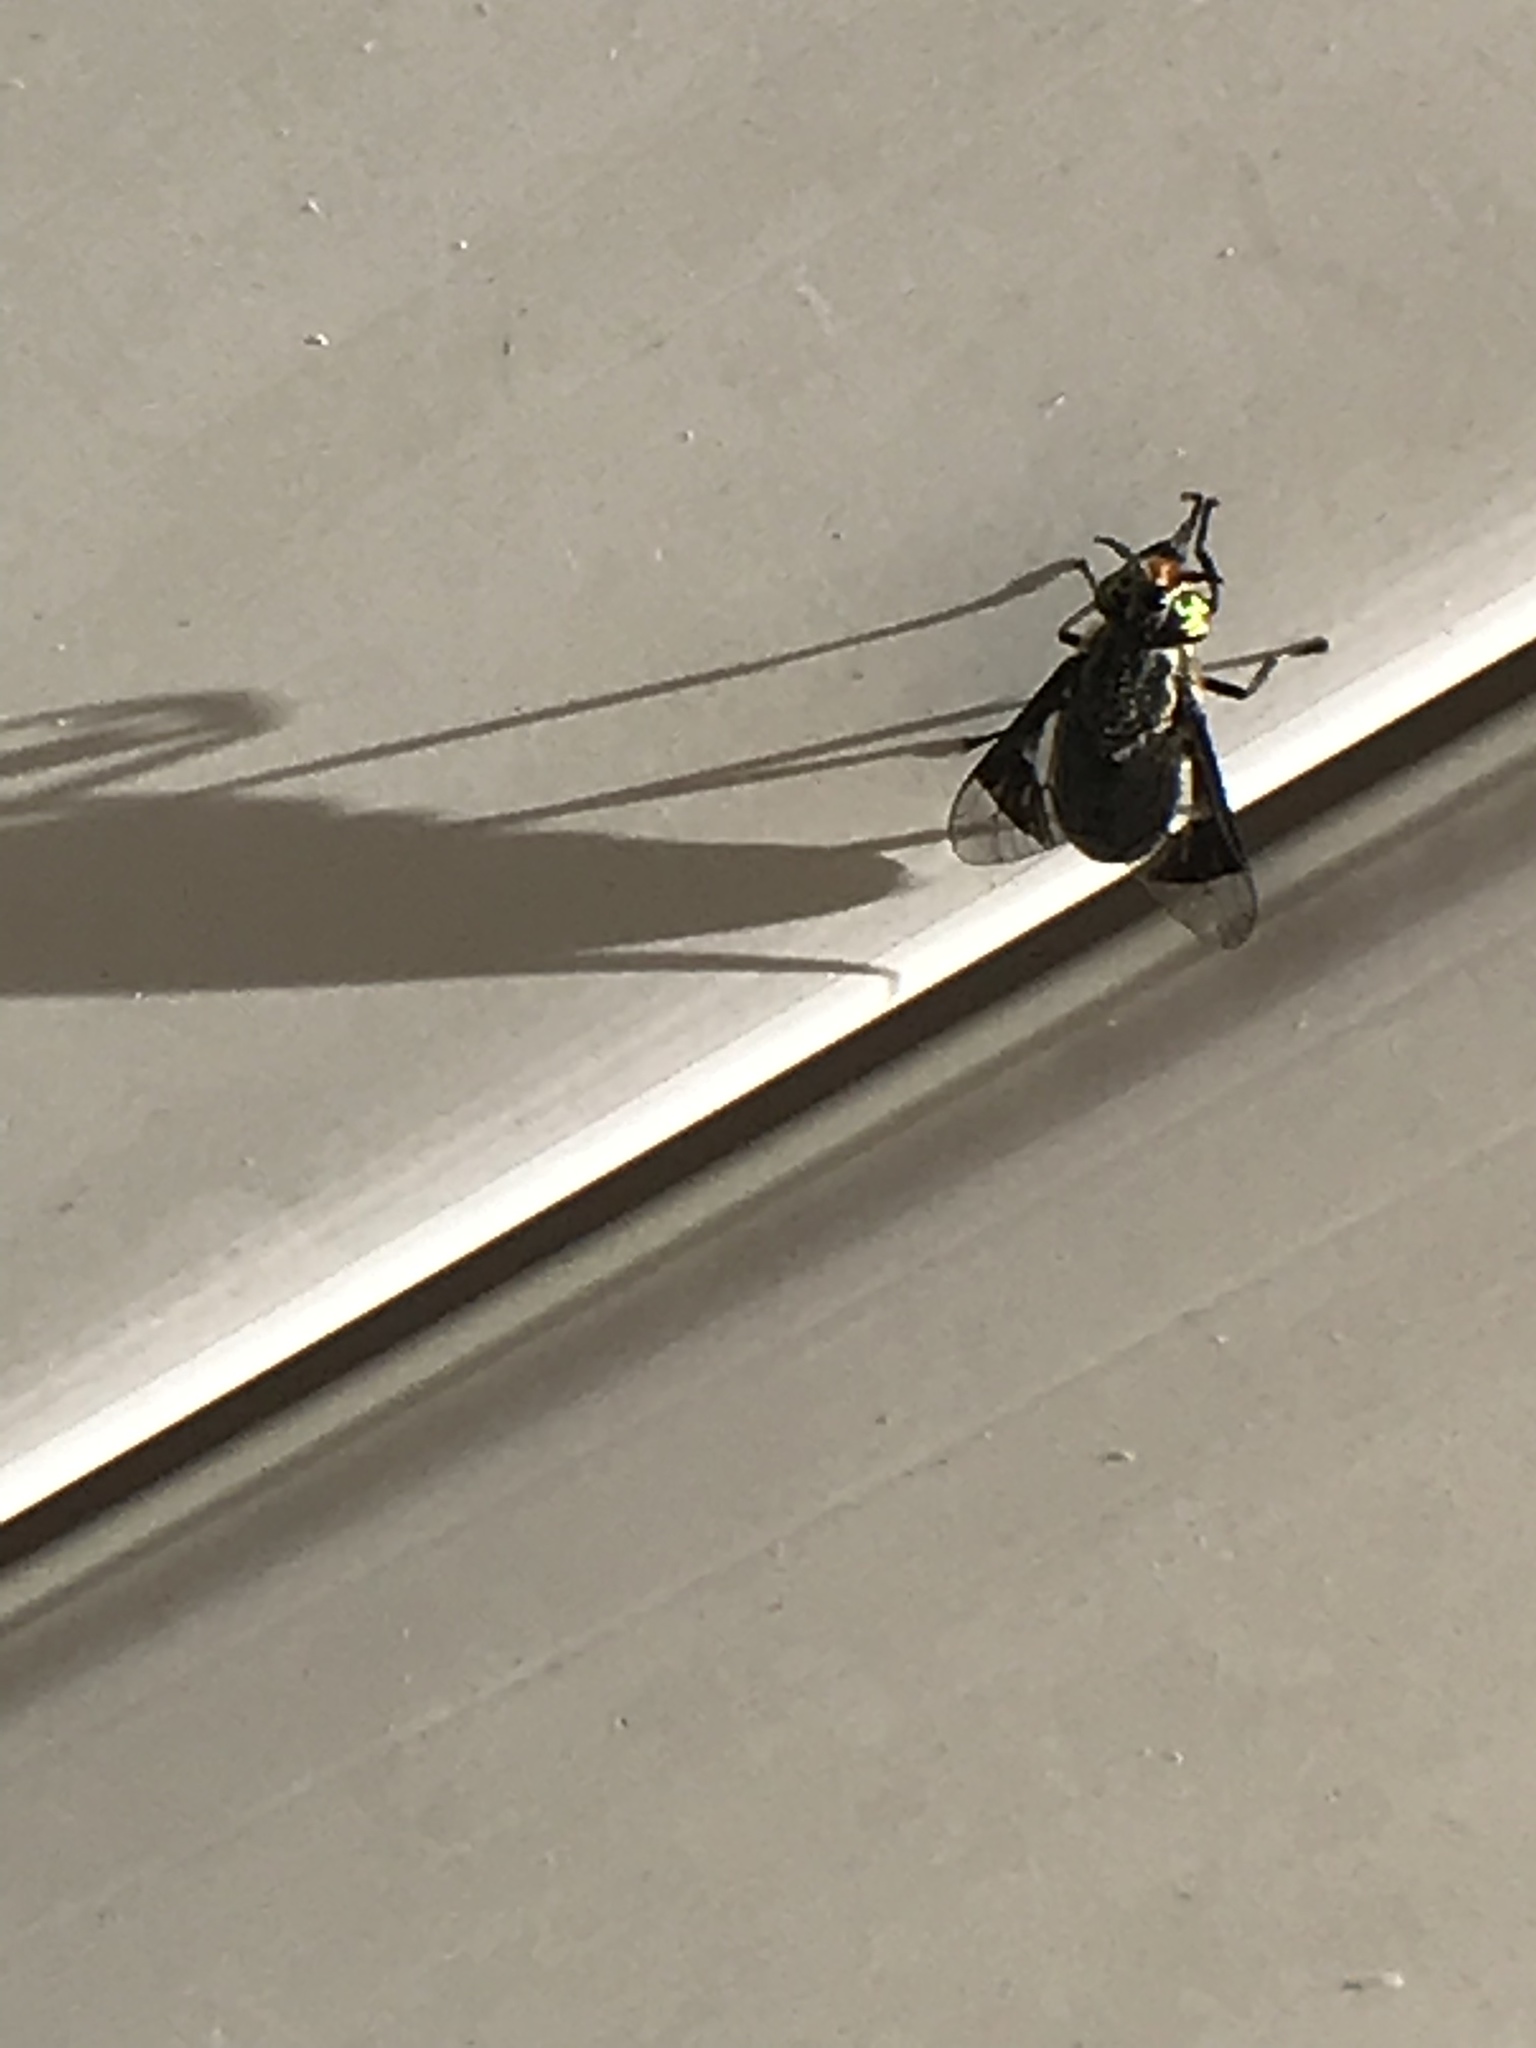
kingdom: Animalia
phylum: Arthropoda
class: Insecta
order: Diptera
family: Tabanidae
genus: Chrysops
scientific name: Chrysops niger
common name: Black deer fly
